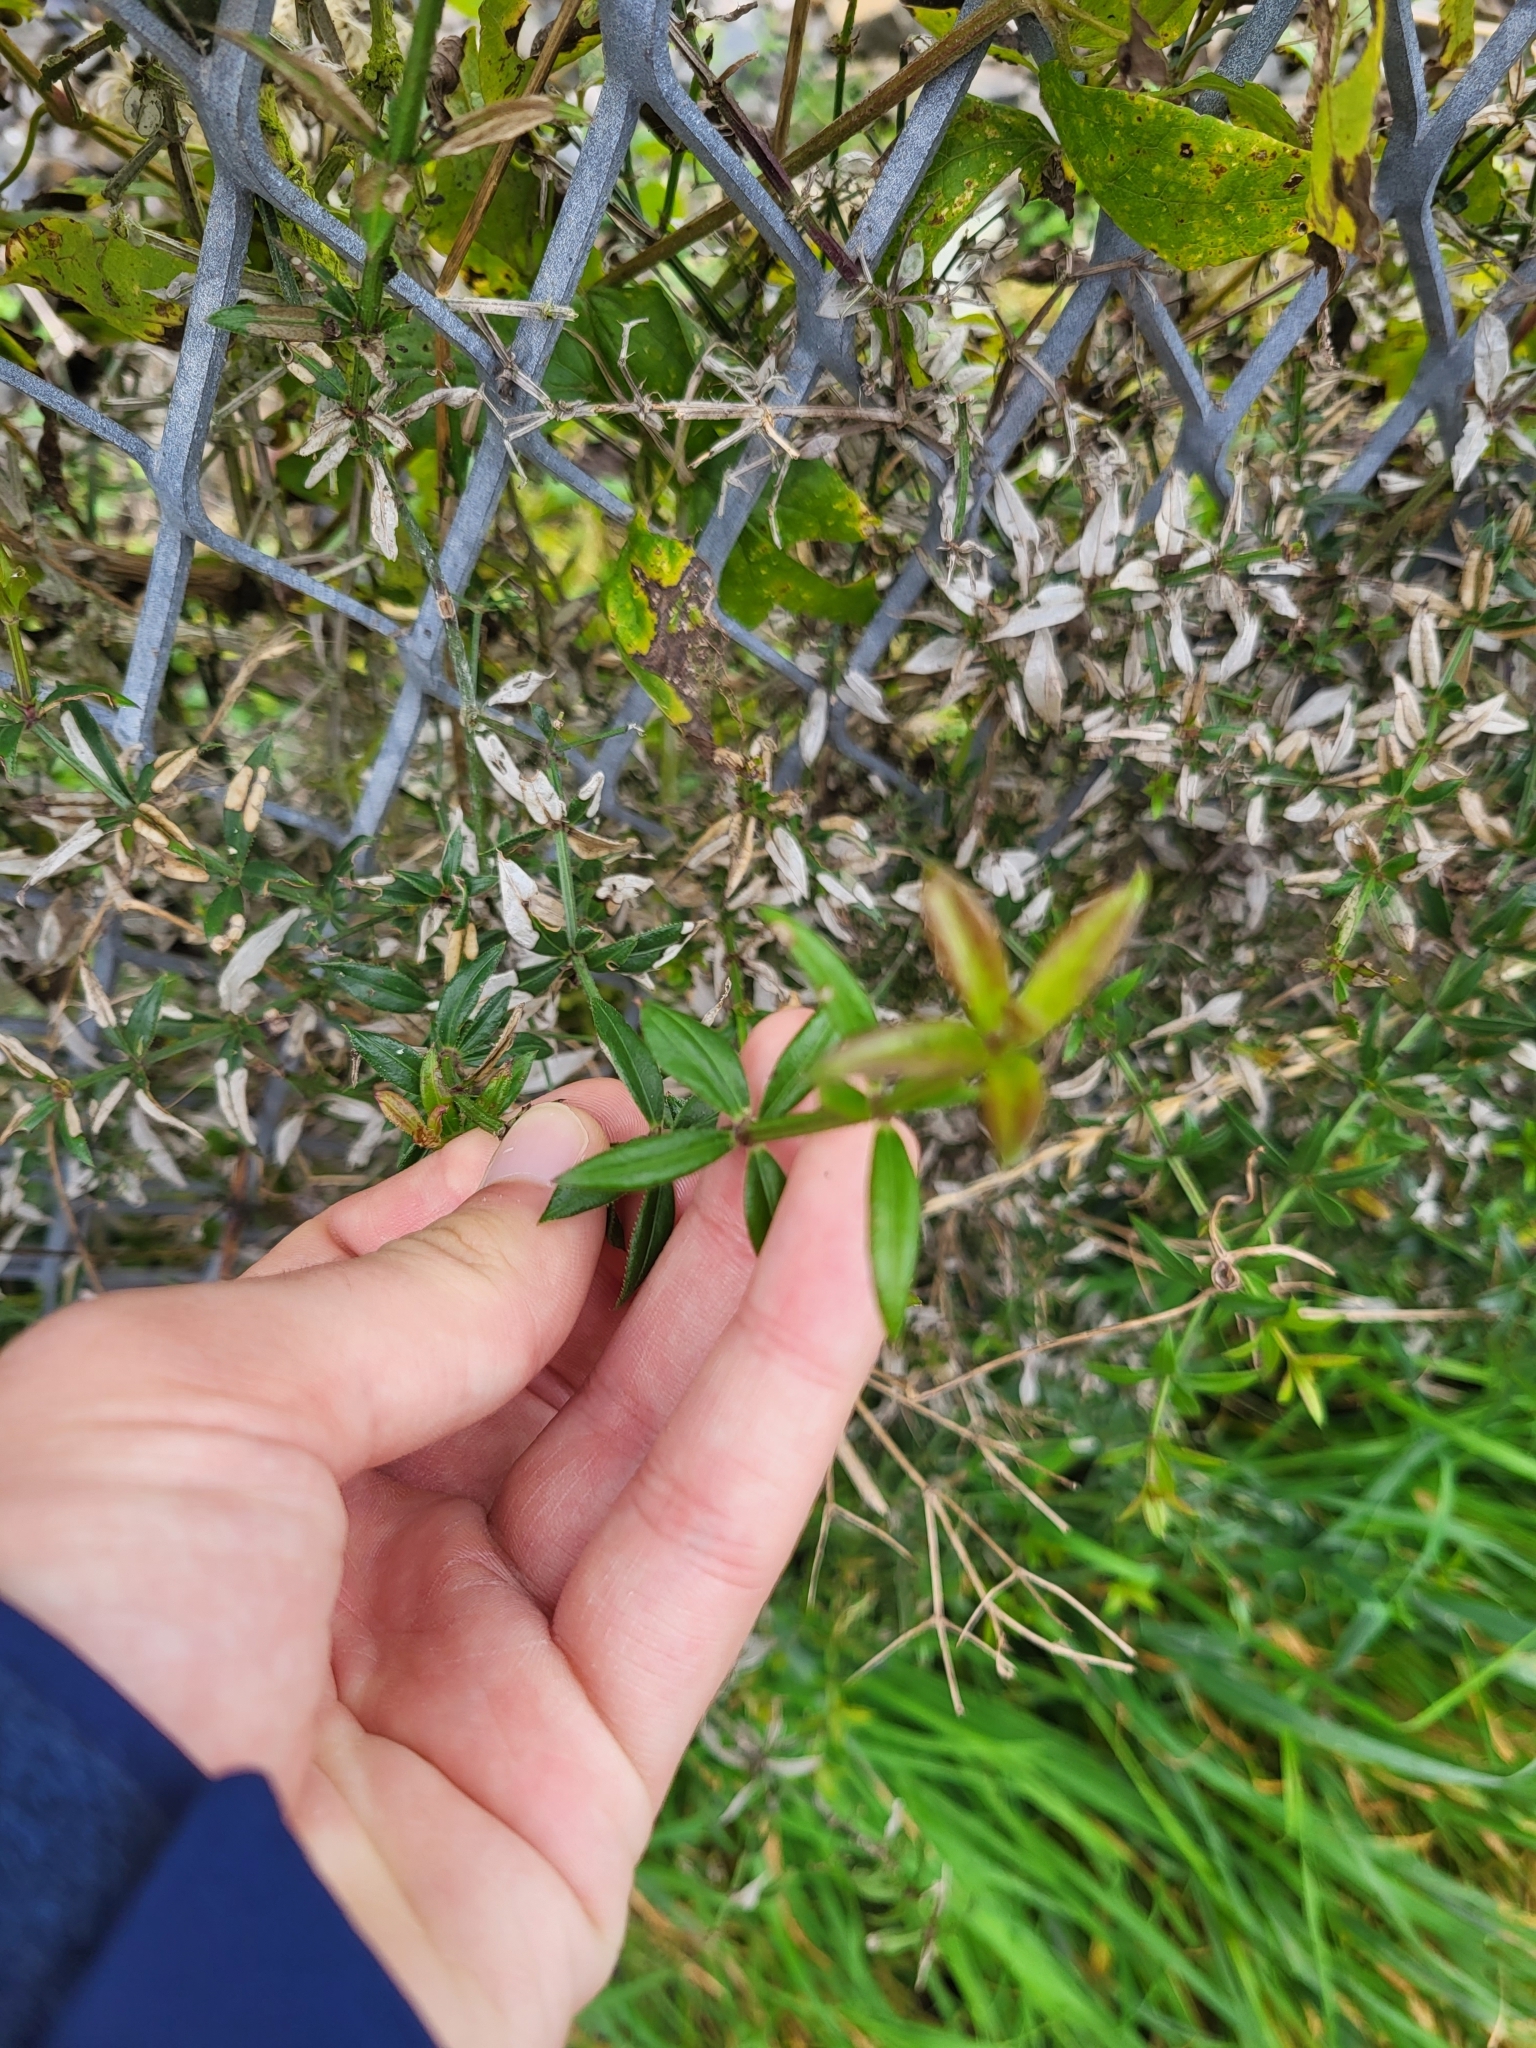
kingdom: Plantae
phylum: Tracheophyta
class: Magnoliopsida
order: Gentianales
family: Rubiaceae
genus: Rubia
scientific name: Rubia peregrina
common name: Wild madder
